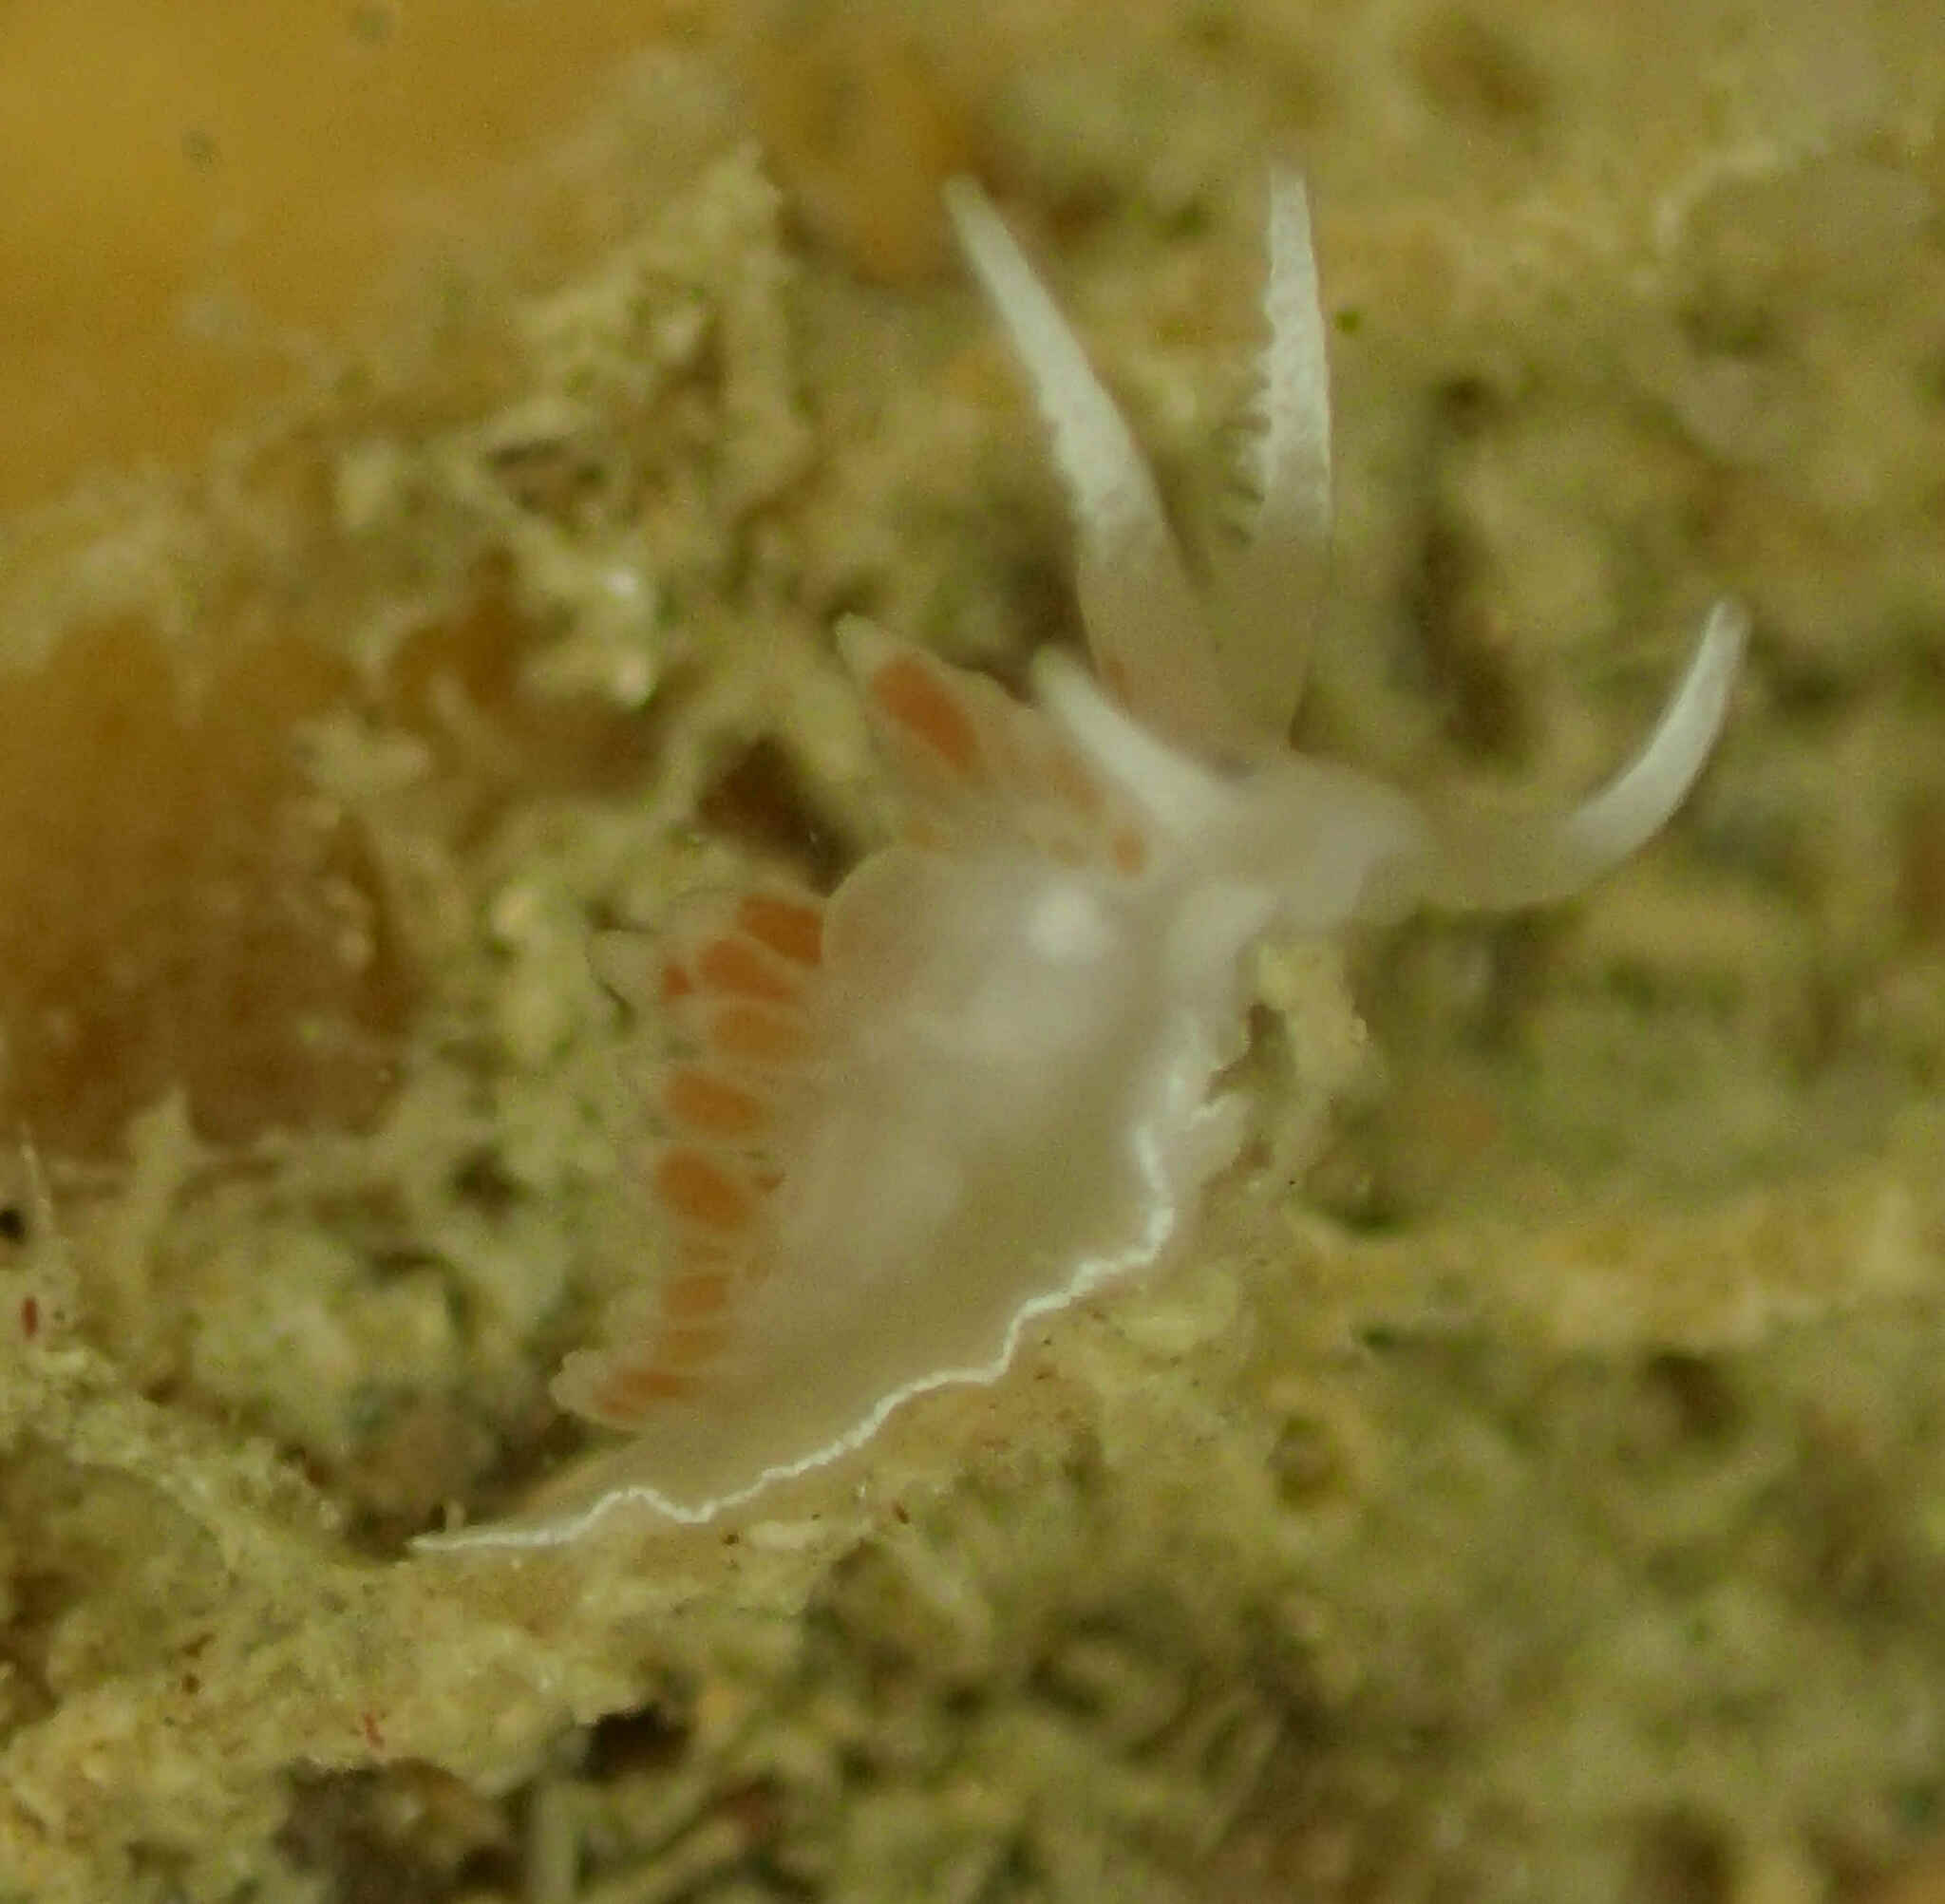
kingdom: Animalia
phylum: Mollusca
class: Gastropoda
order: Nudibranchia
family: Flabellinidae
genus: Coryphellina
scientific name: Coryphellina albomarginata
